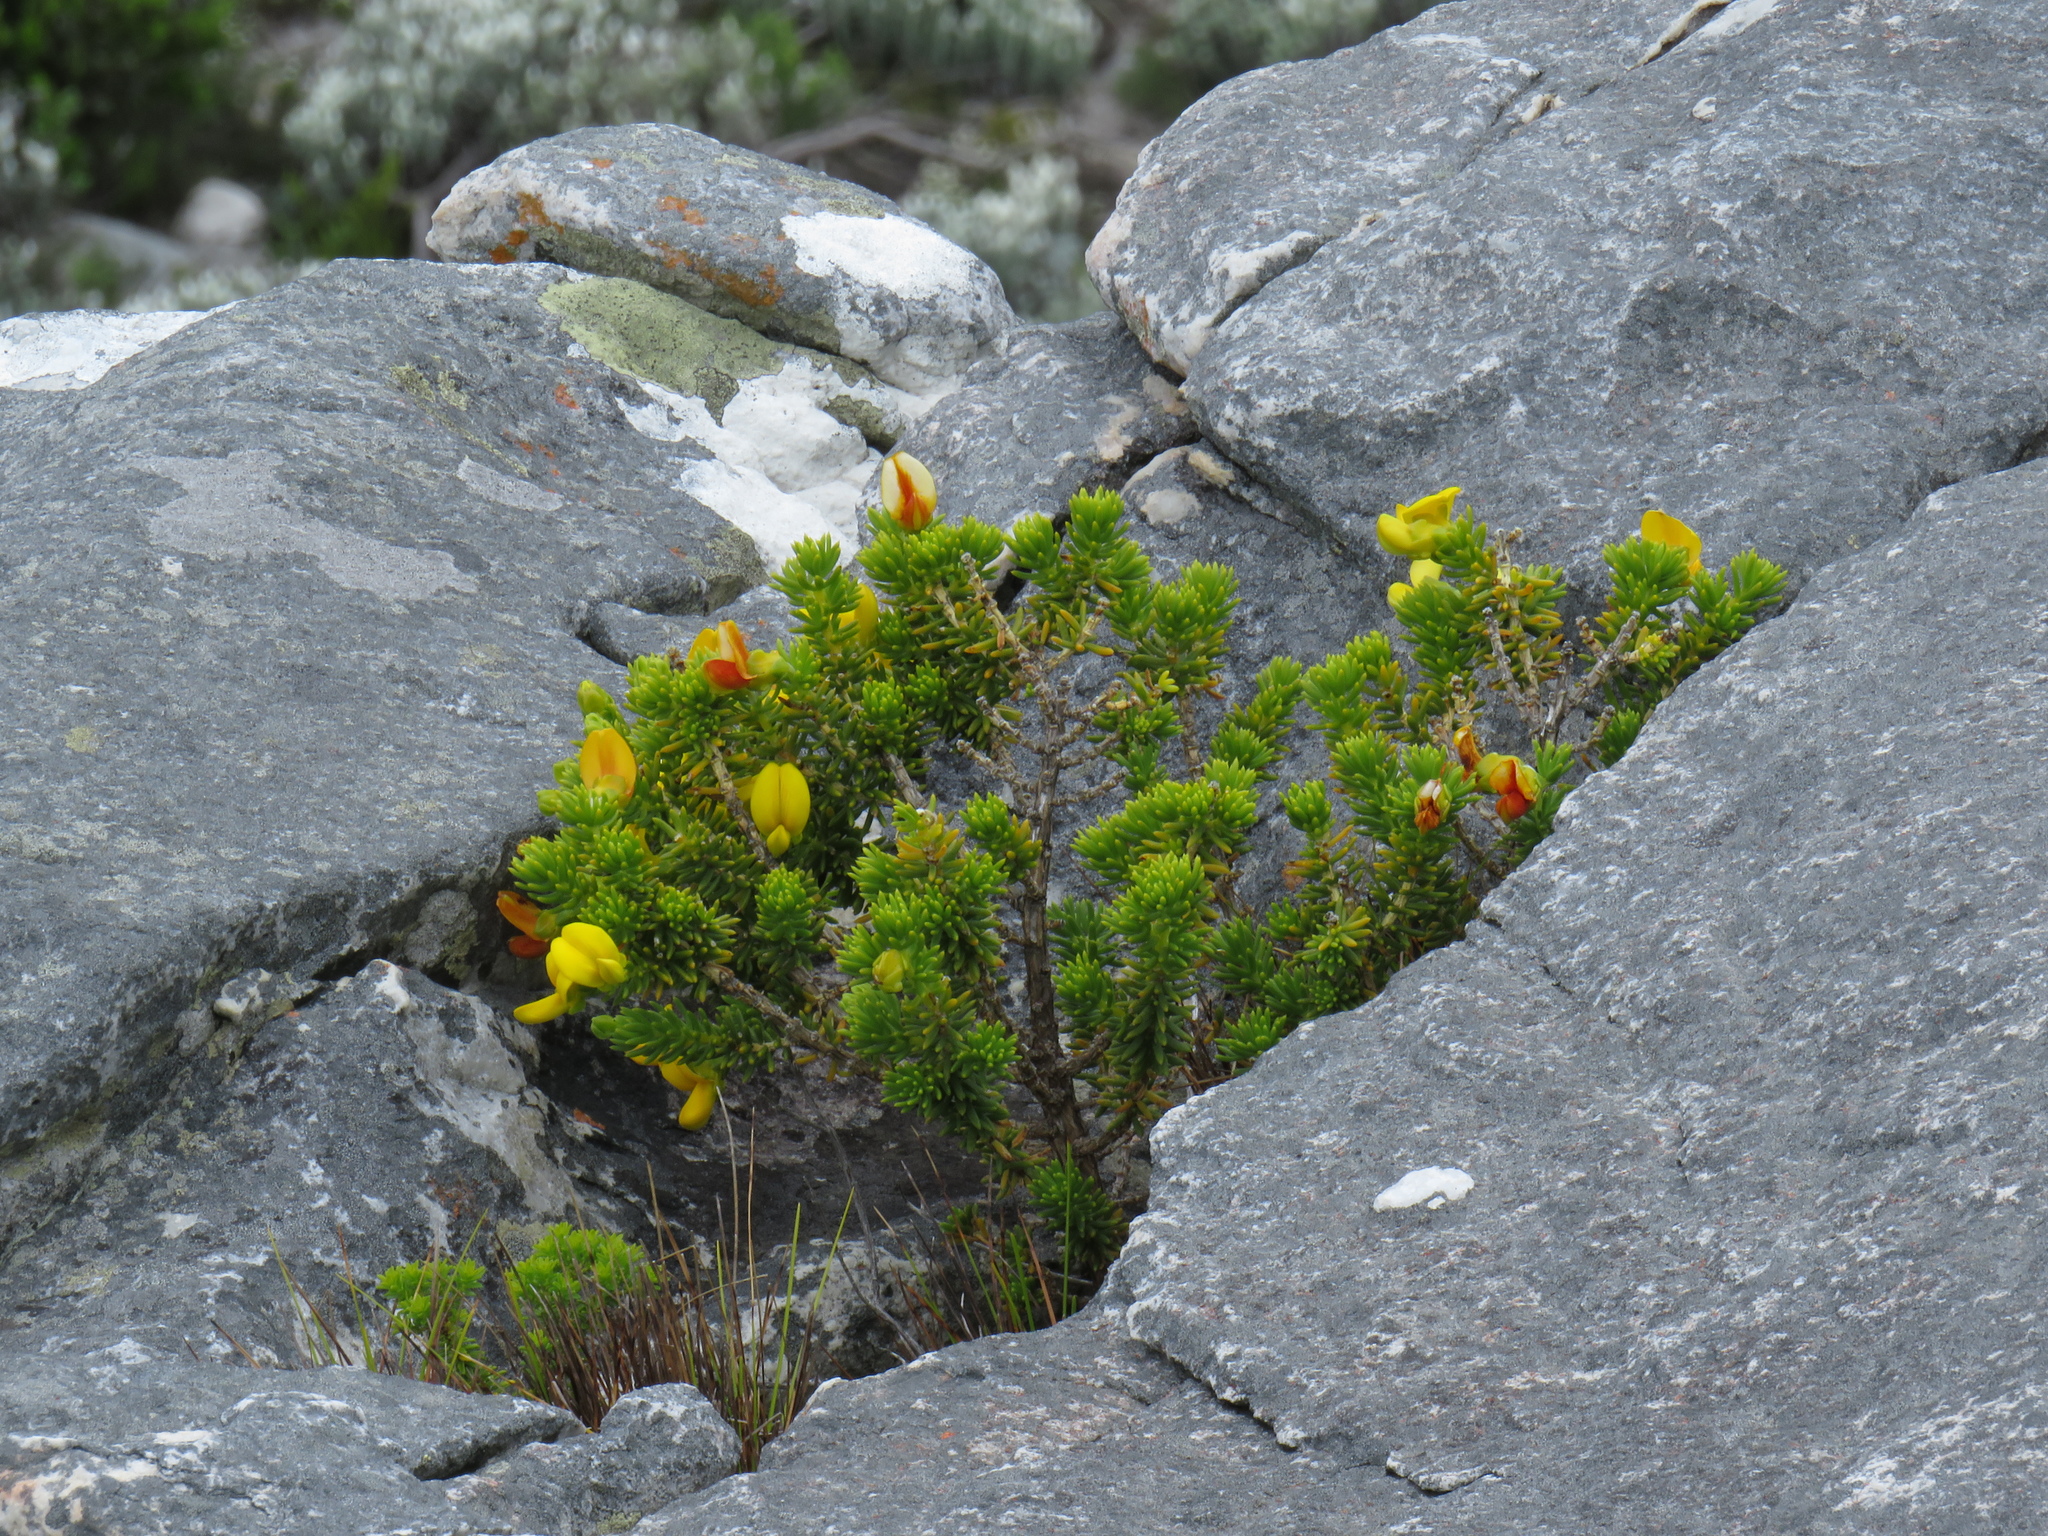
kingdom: Plantae
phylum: Tracheophyta
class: Magnoliopsida
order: Fabales
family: Fabaceae
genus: Aspalathus
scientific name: Aspalathus capensis
